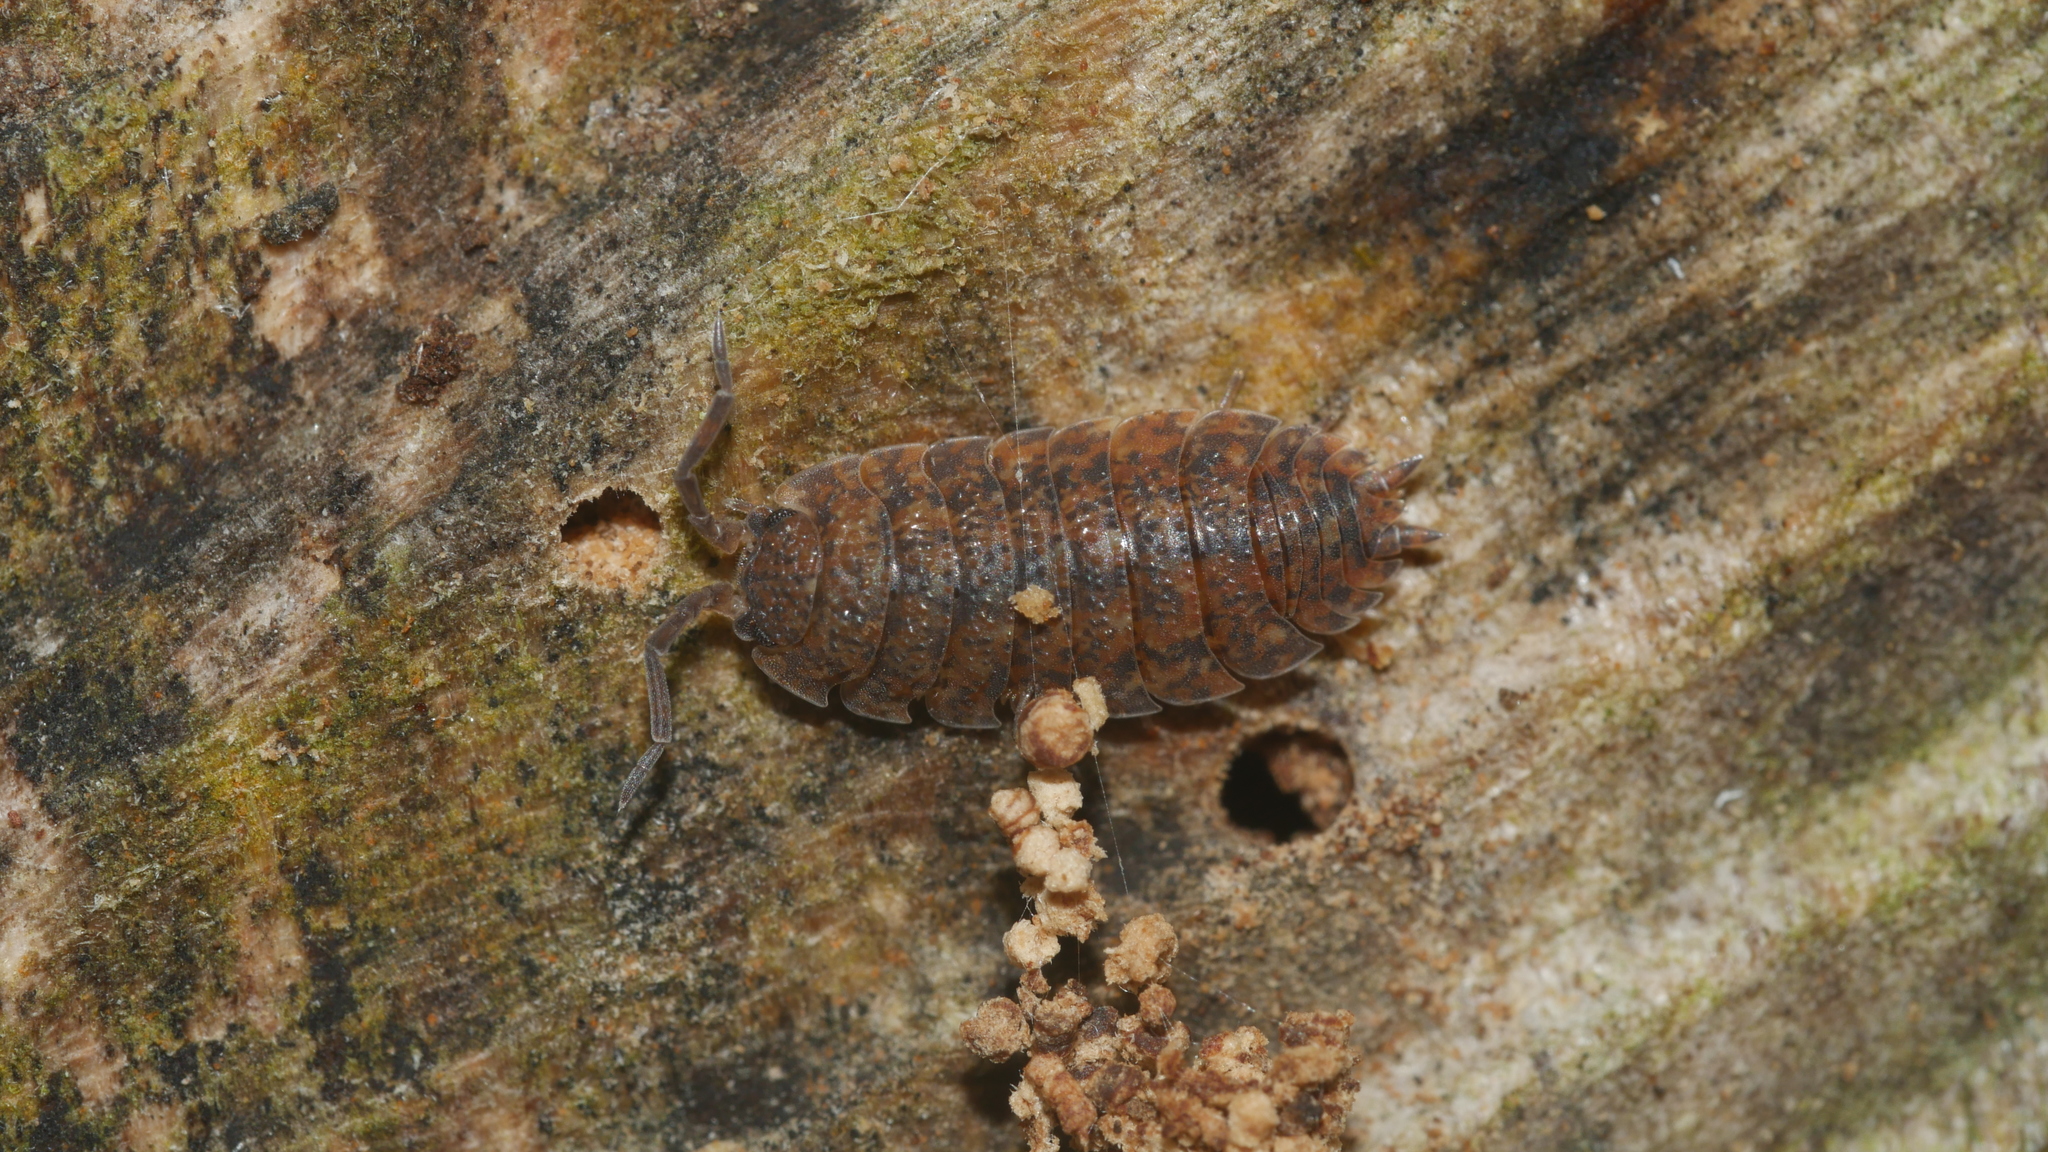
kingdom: Animalia
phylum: Arthropoda
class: Malacostraca
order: Isopoda
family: Porcellionidae
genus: Porcellio
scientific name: Porcellio scaber
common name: Common rough woodlouse
